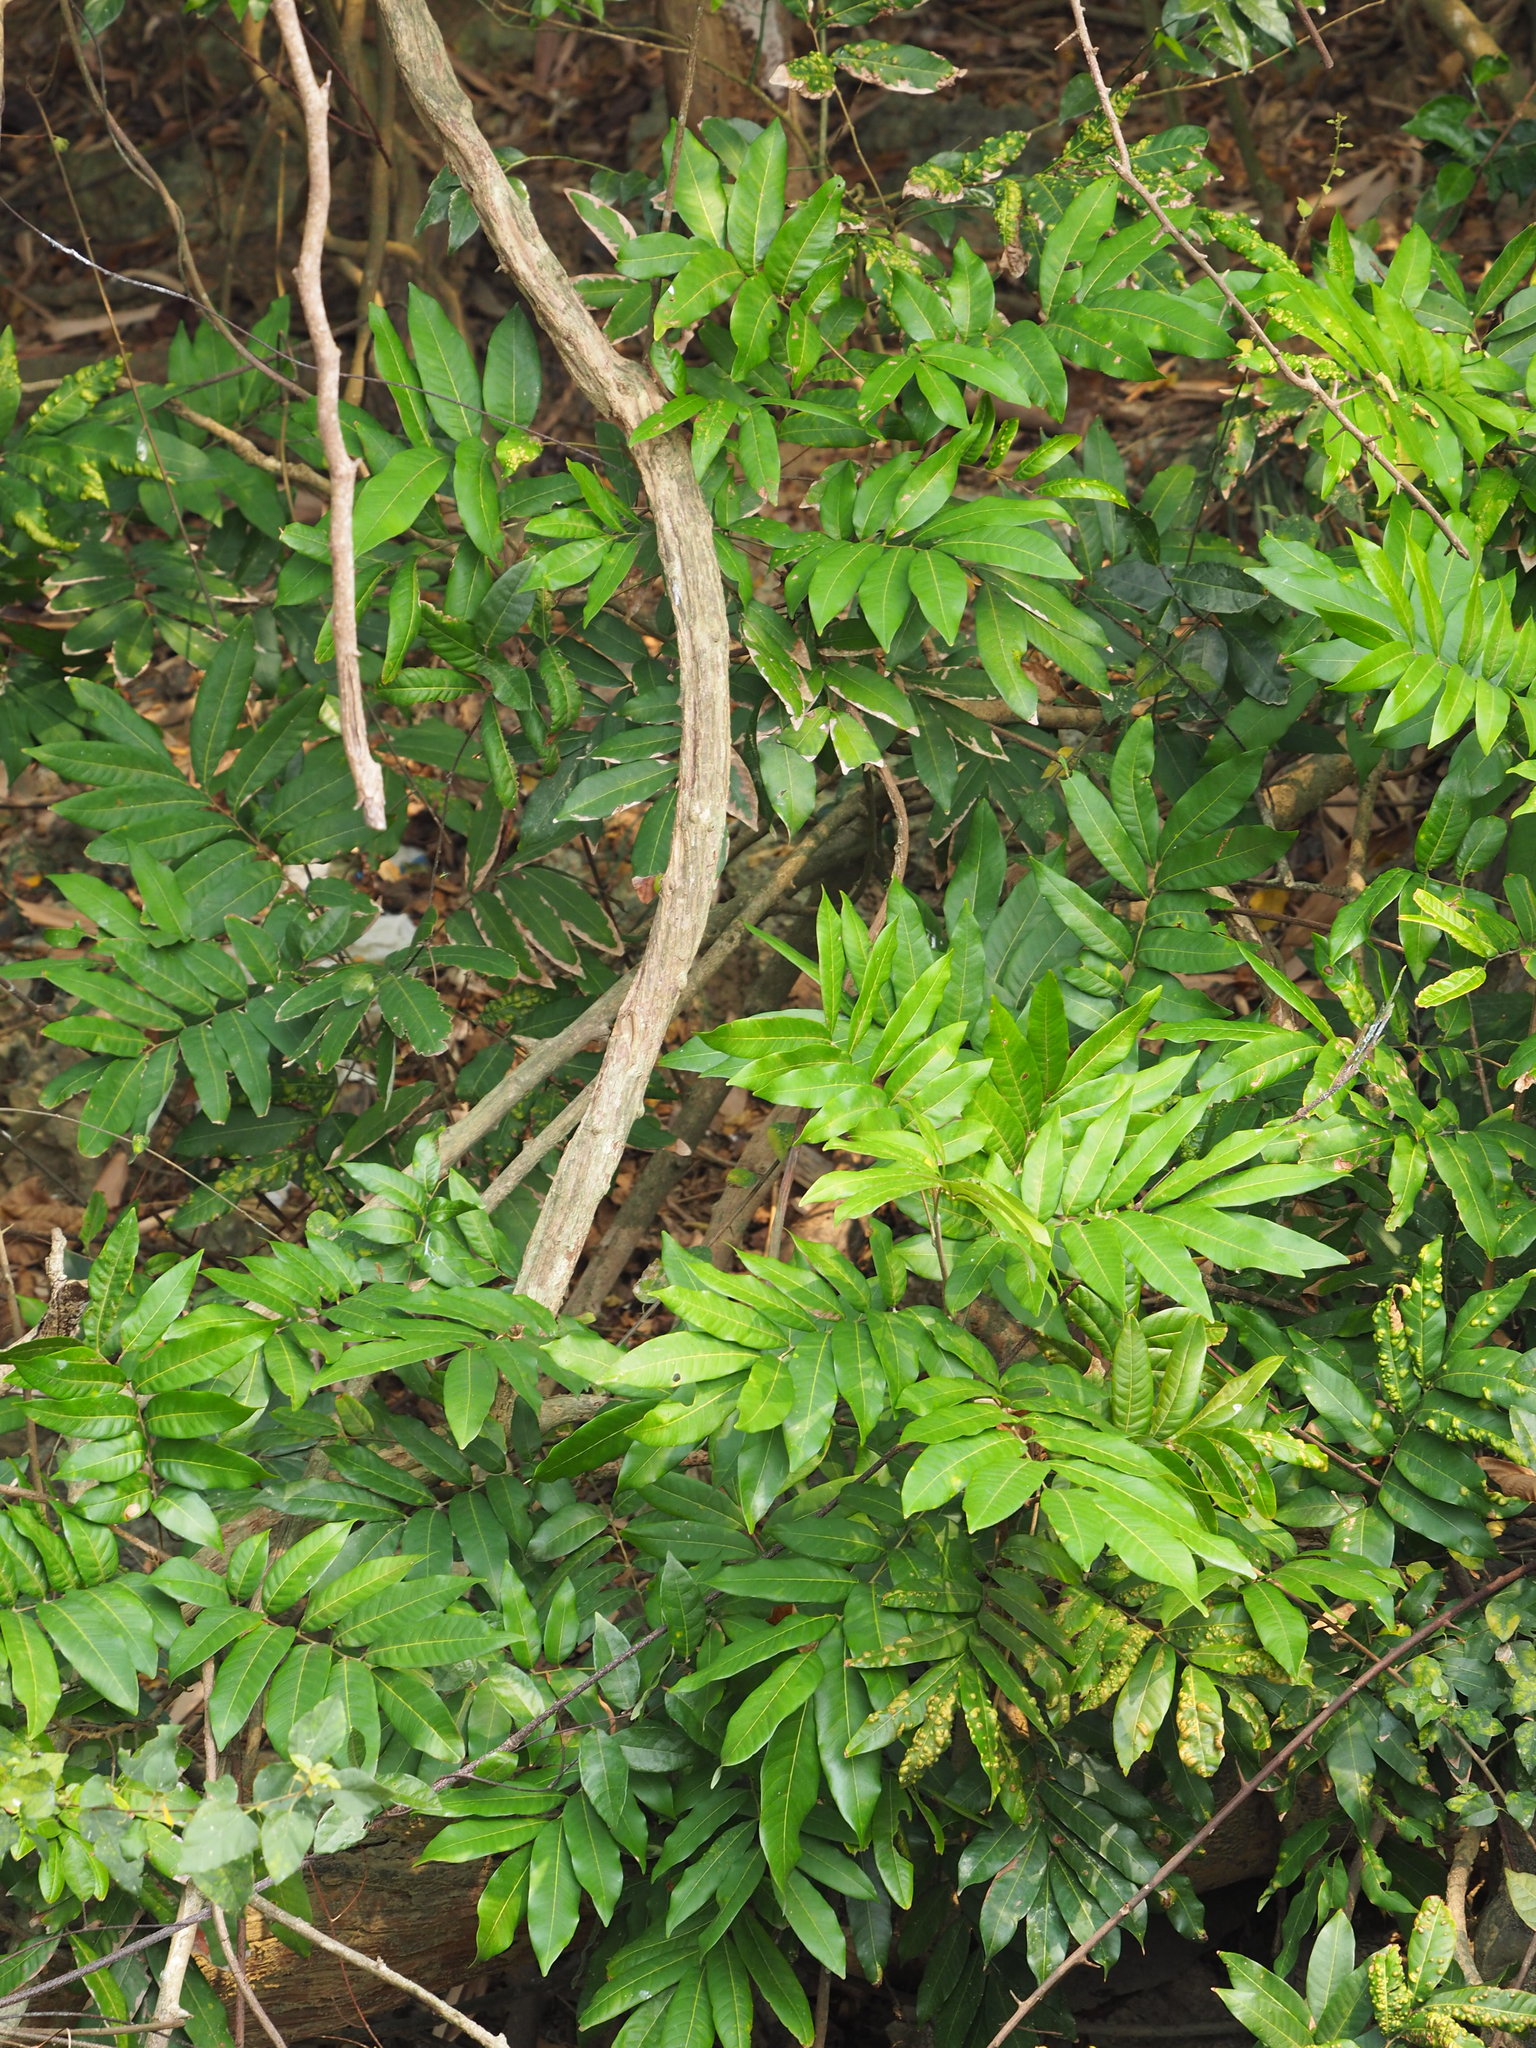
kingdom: Plantae
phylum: Tracheophyta
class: Magnoliopsida
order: Sapindales
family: Sapindaceae
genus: Dimocarpus
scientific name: Dimocarpus longan
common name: Longan
